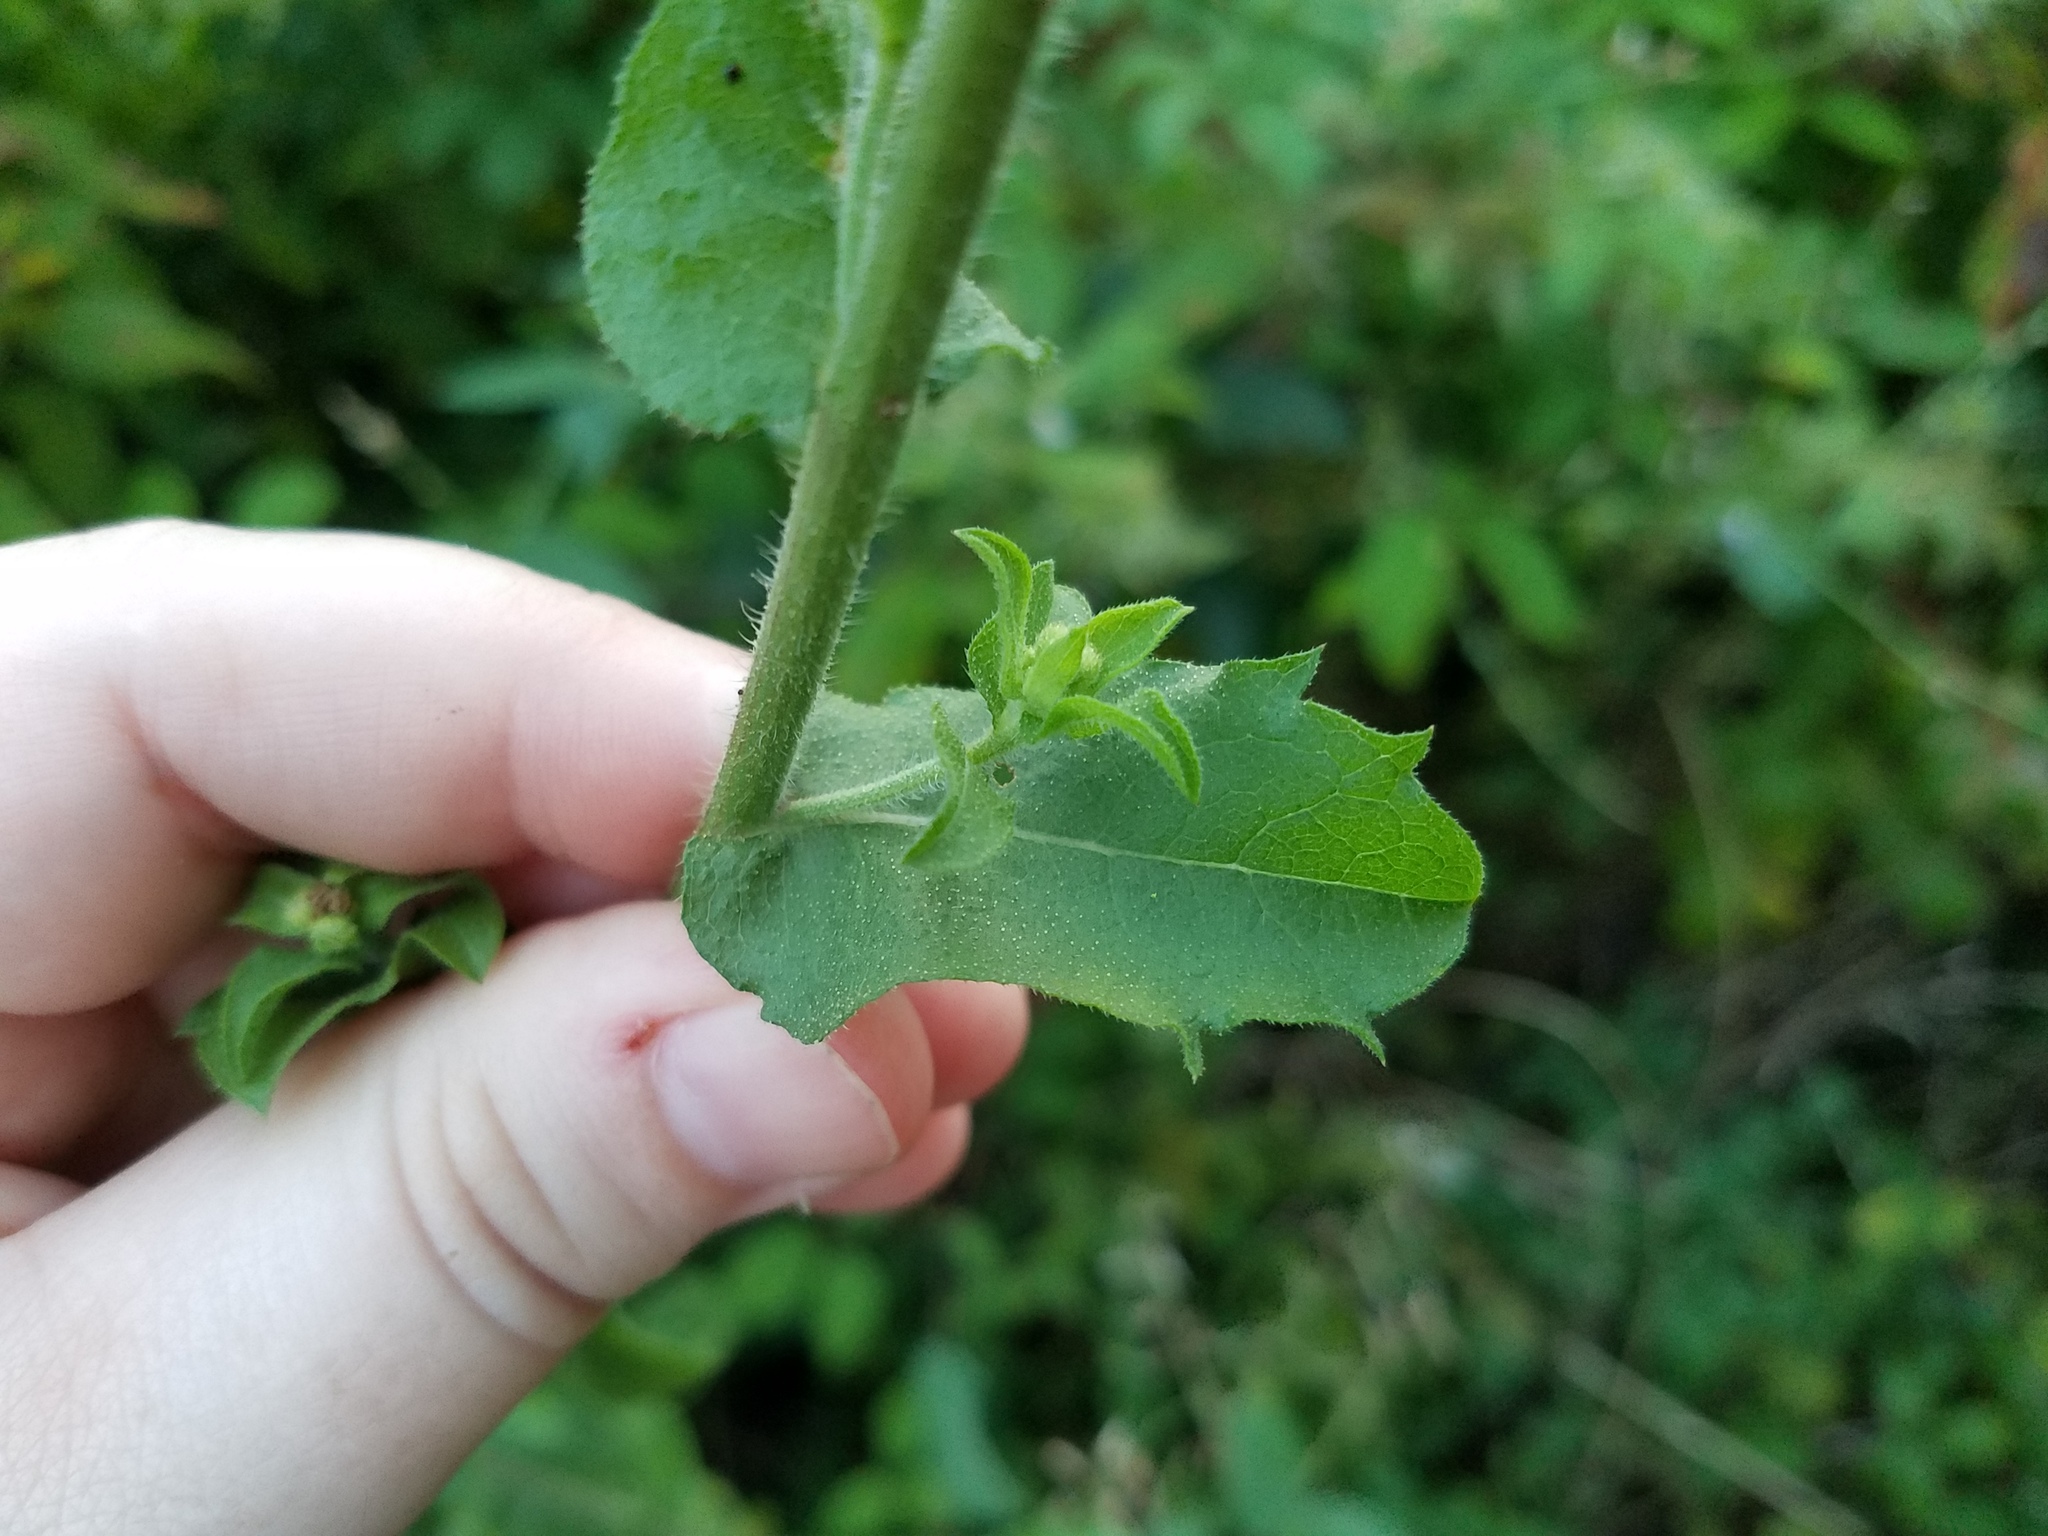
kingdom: Plantae
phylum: Tracheophyta
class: Magnoliopsida
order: Asterales
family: Asteraceae
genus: Heterotheca
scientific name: Heterotheca subaxillaris
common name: Camphorweed
